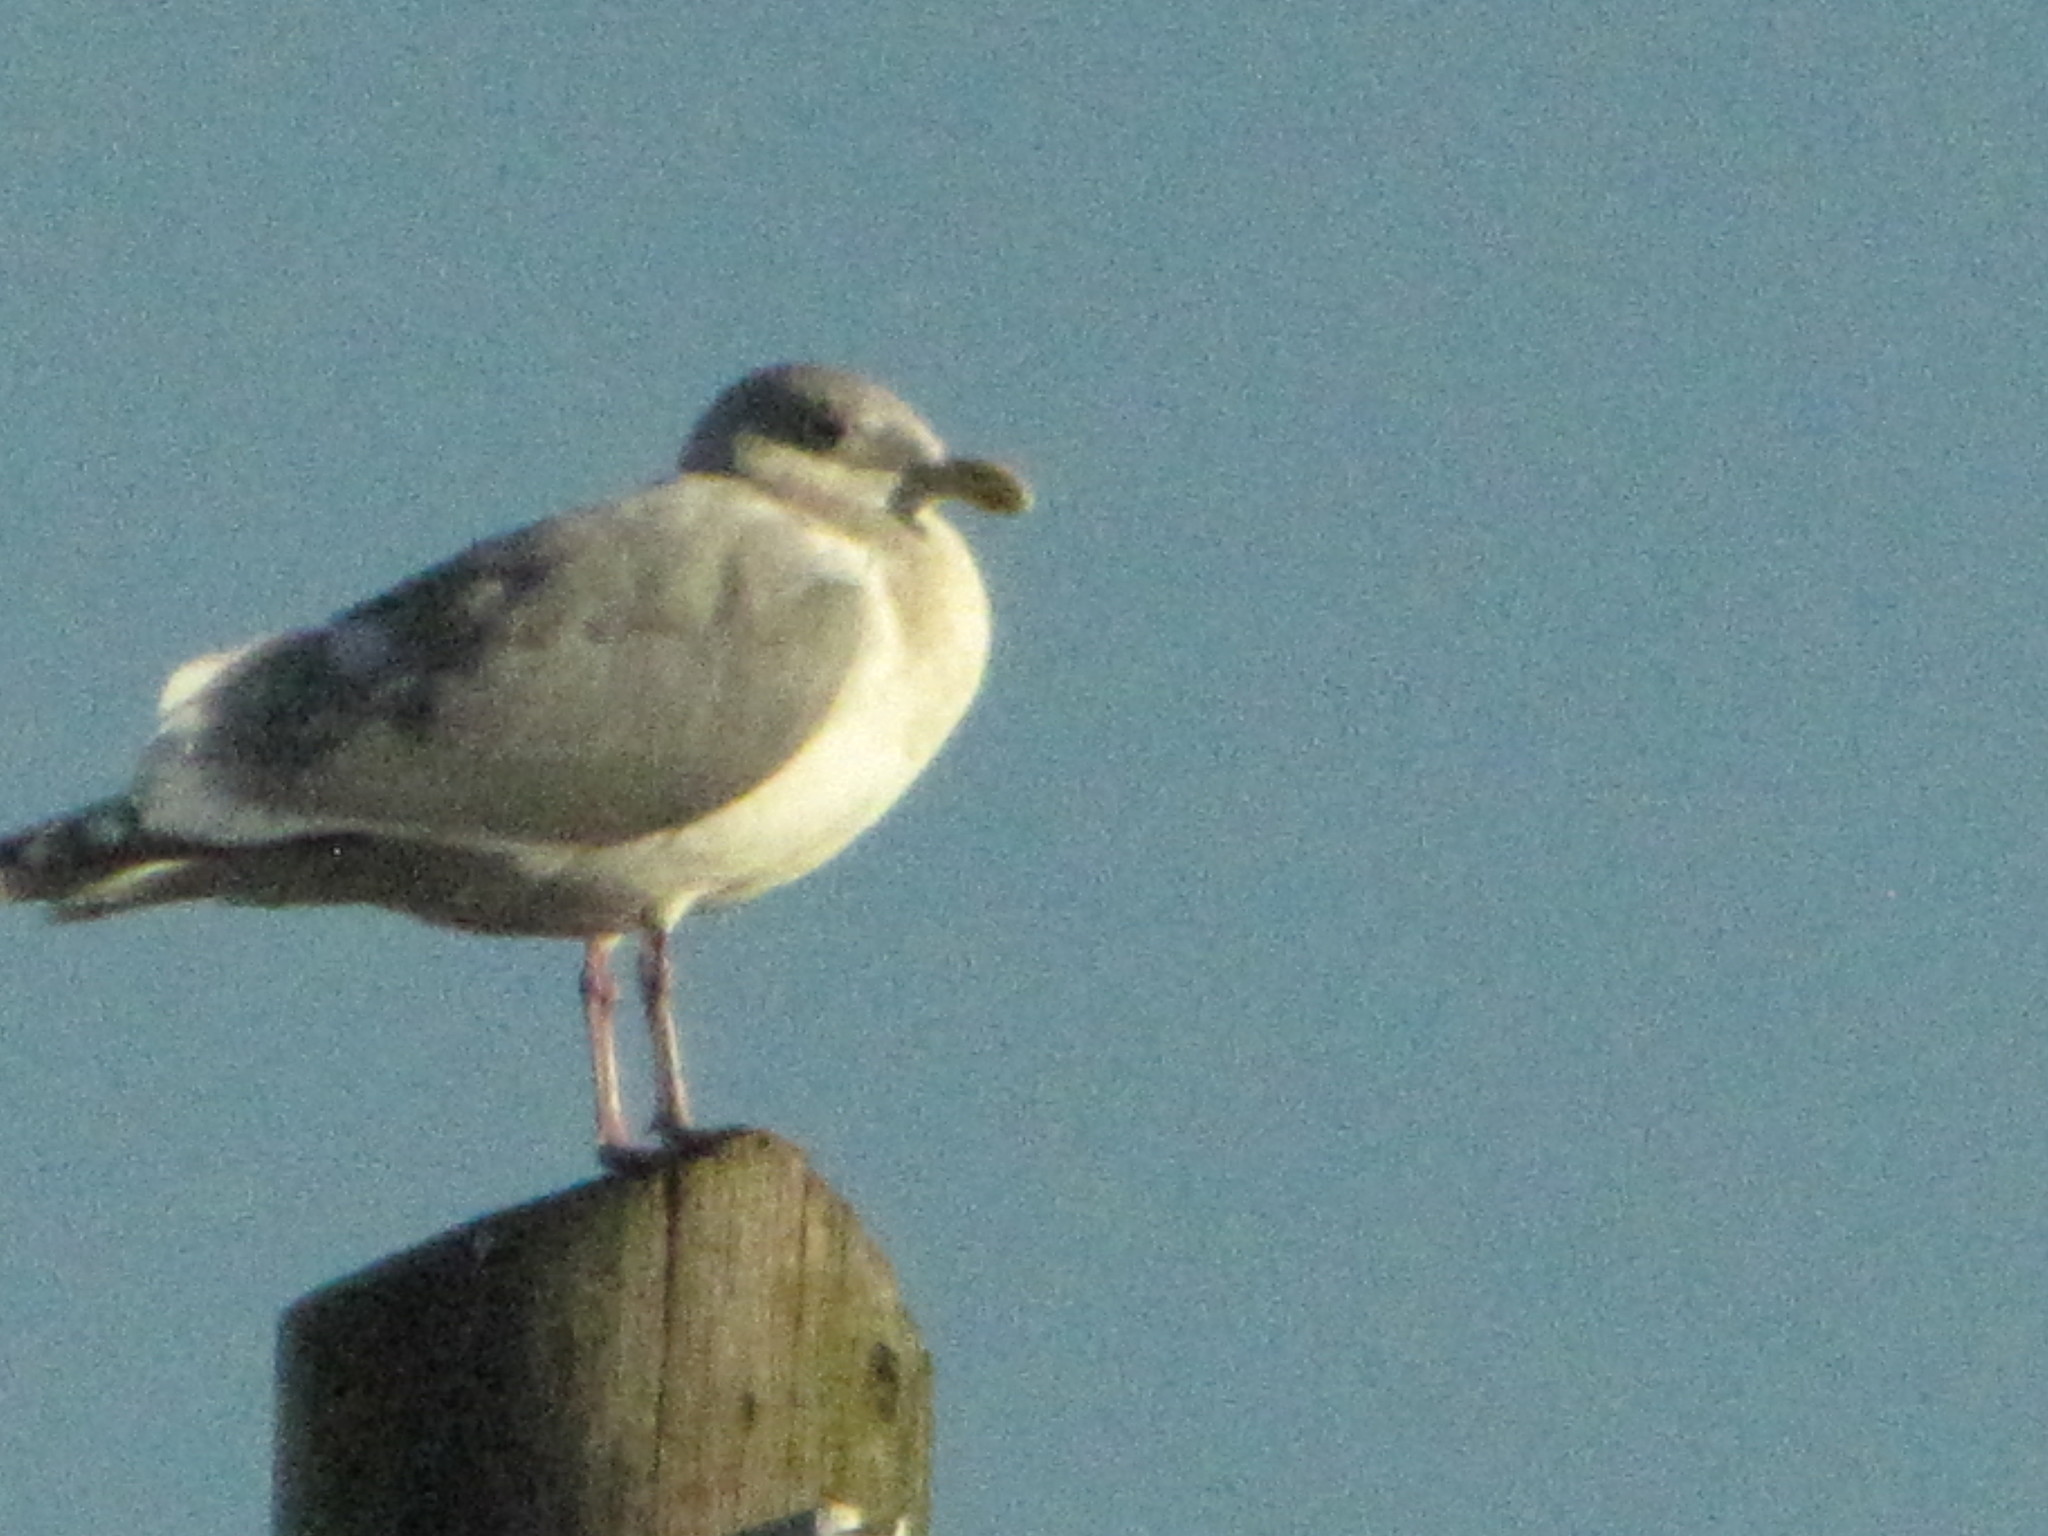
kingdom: Animalia
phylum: Chordata
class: Aves
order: Charadriiformes
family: Laridae
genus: Larus
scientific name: Larus
